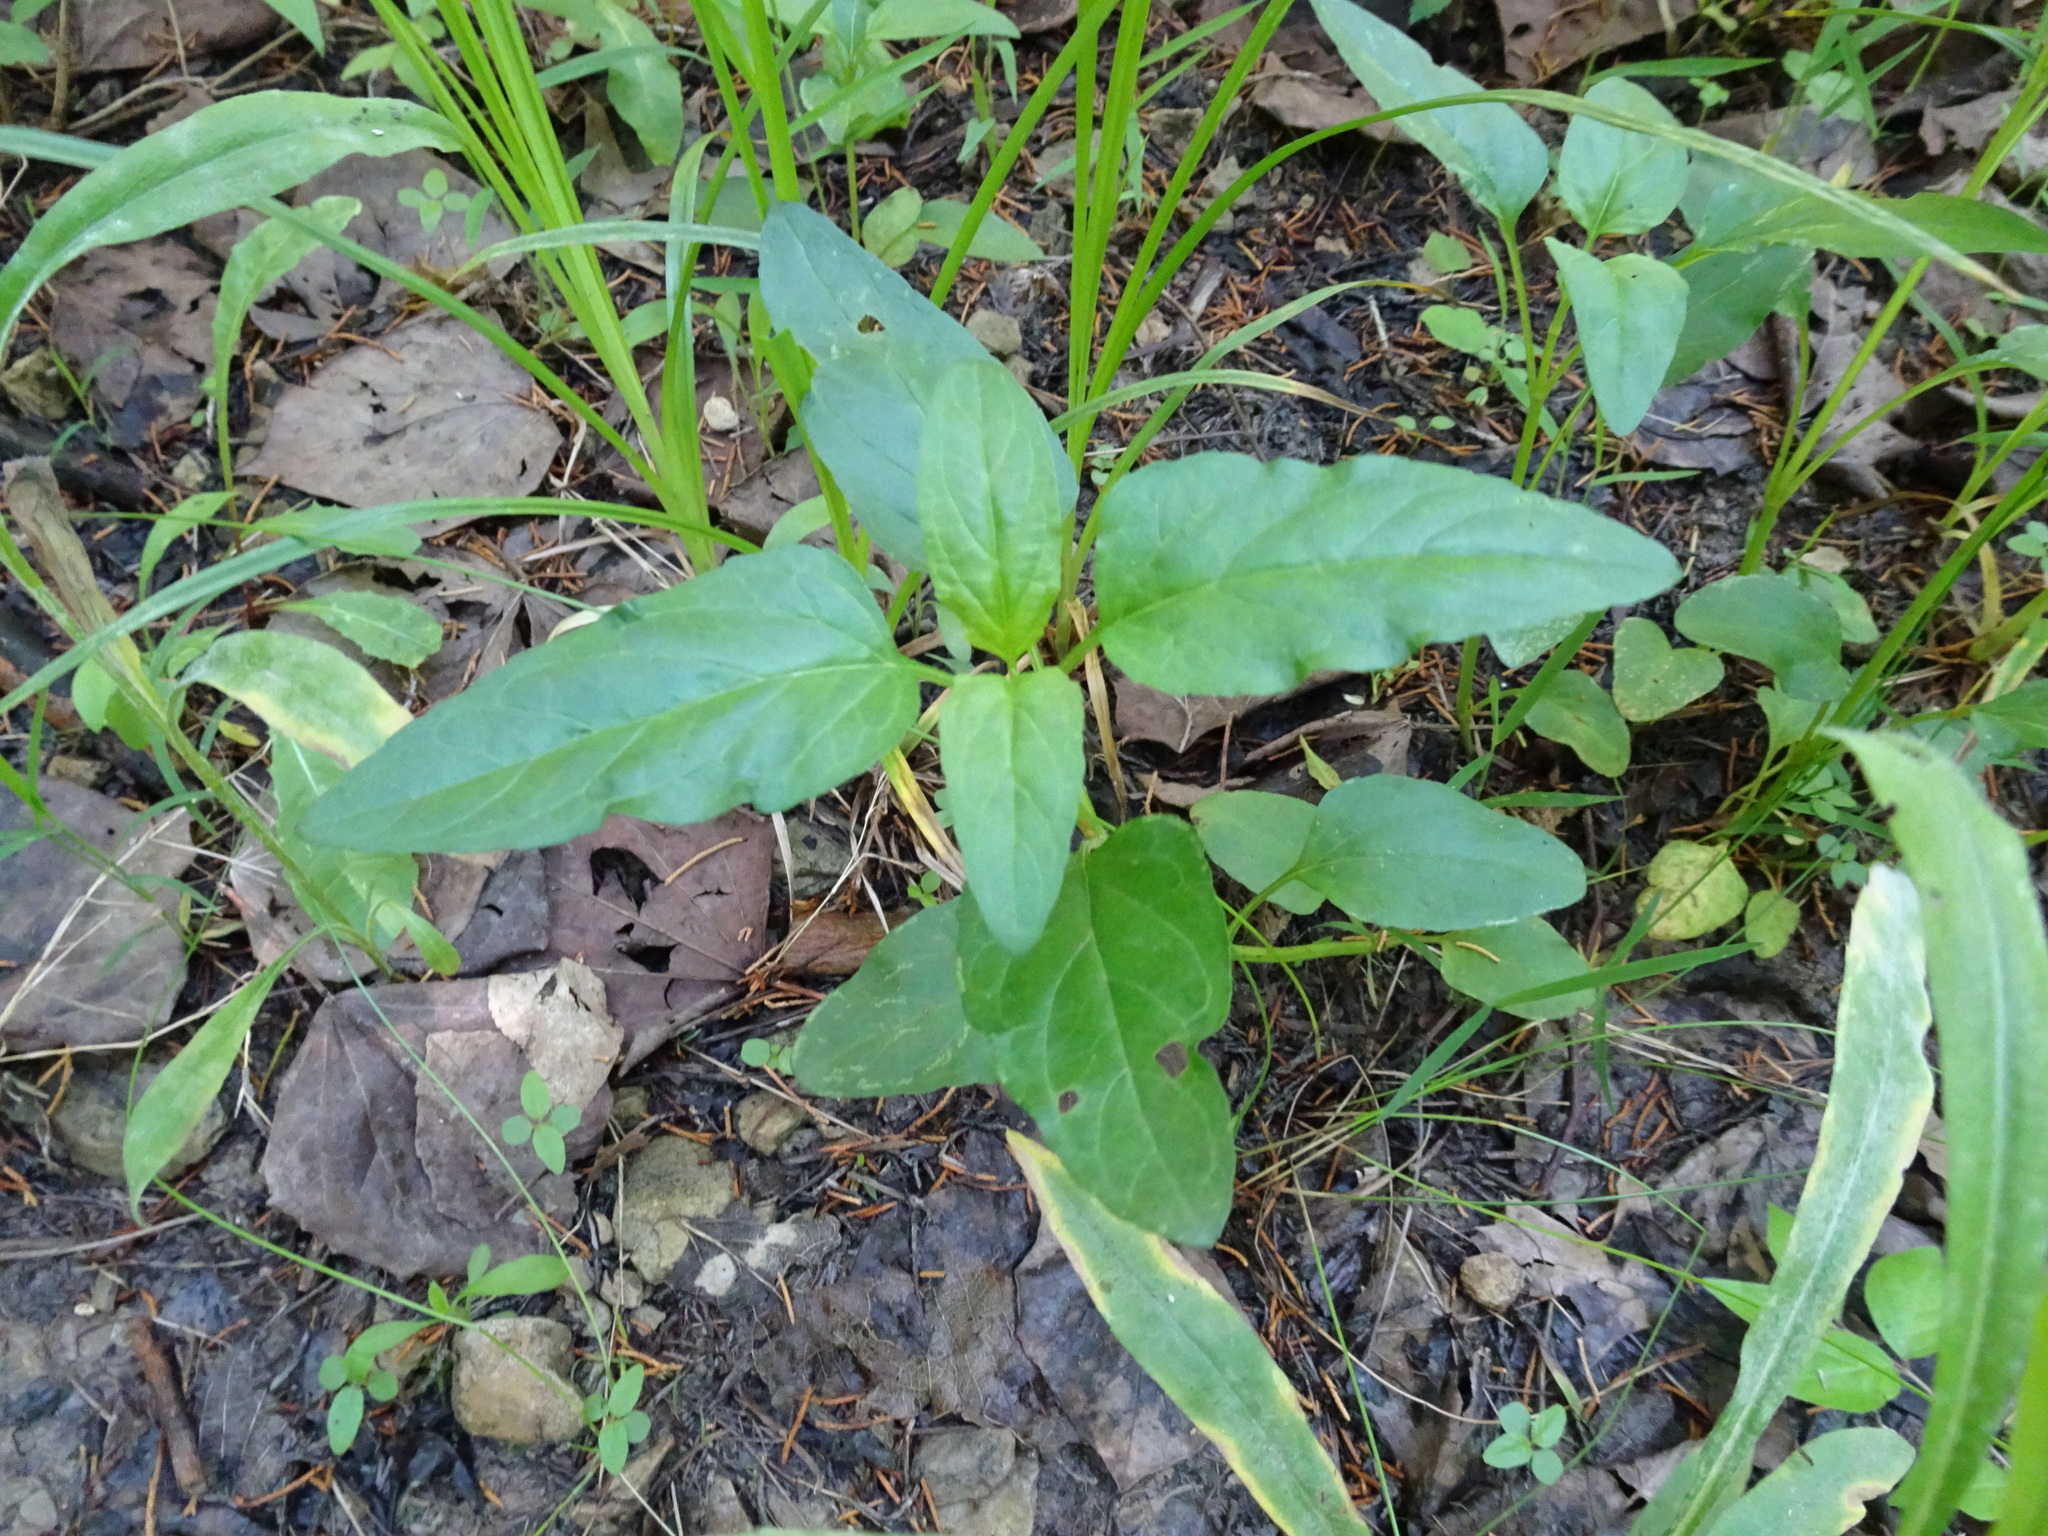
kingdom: Plantae
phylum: Tracheophyta
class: Magnoliopsida
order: Lamiales
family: Lamiaceae
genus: Prunella
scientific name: Prunella vulgaris
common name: Heal-all
